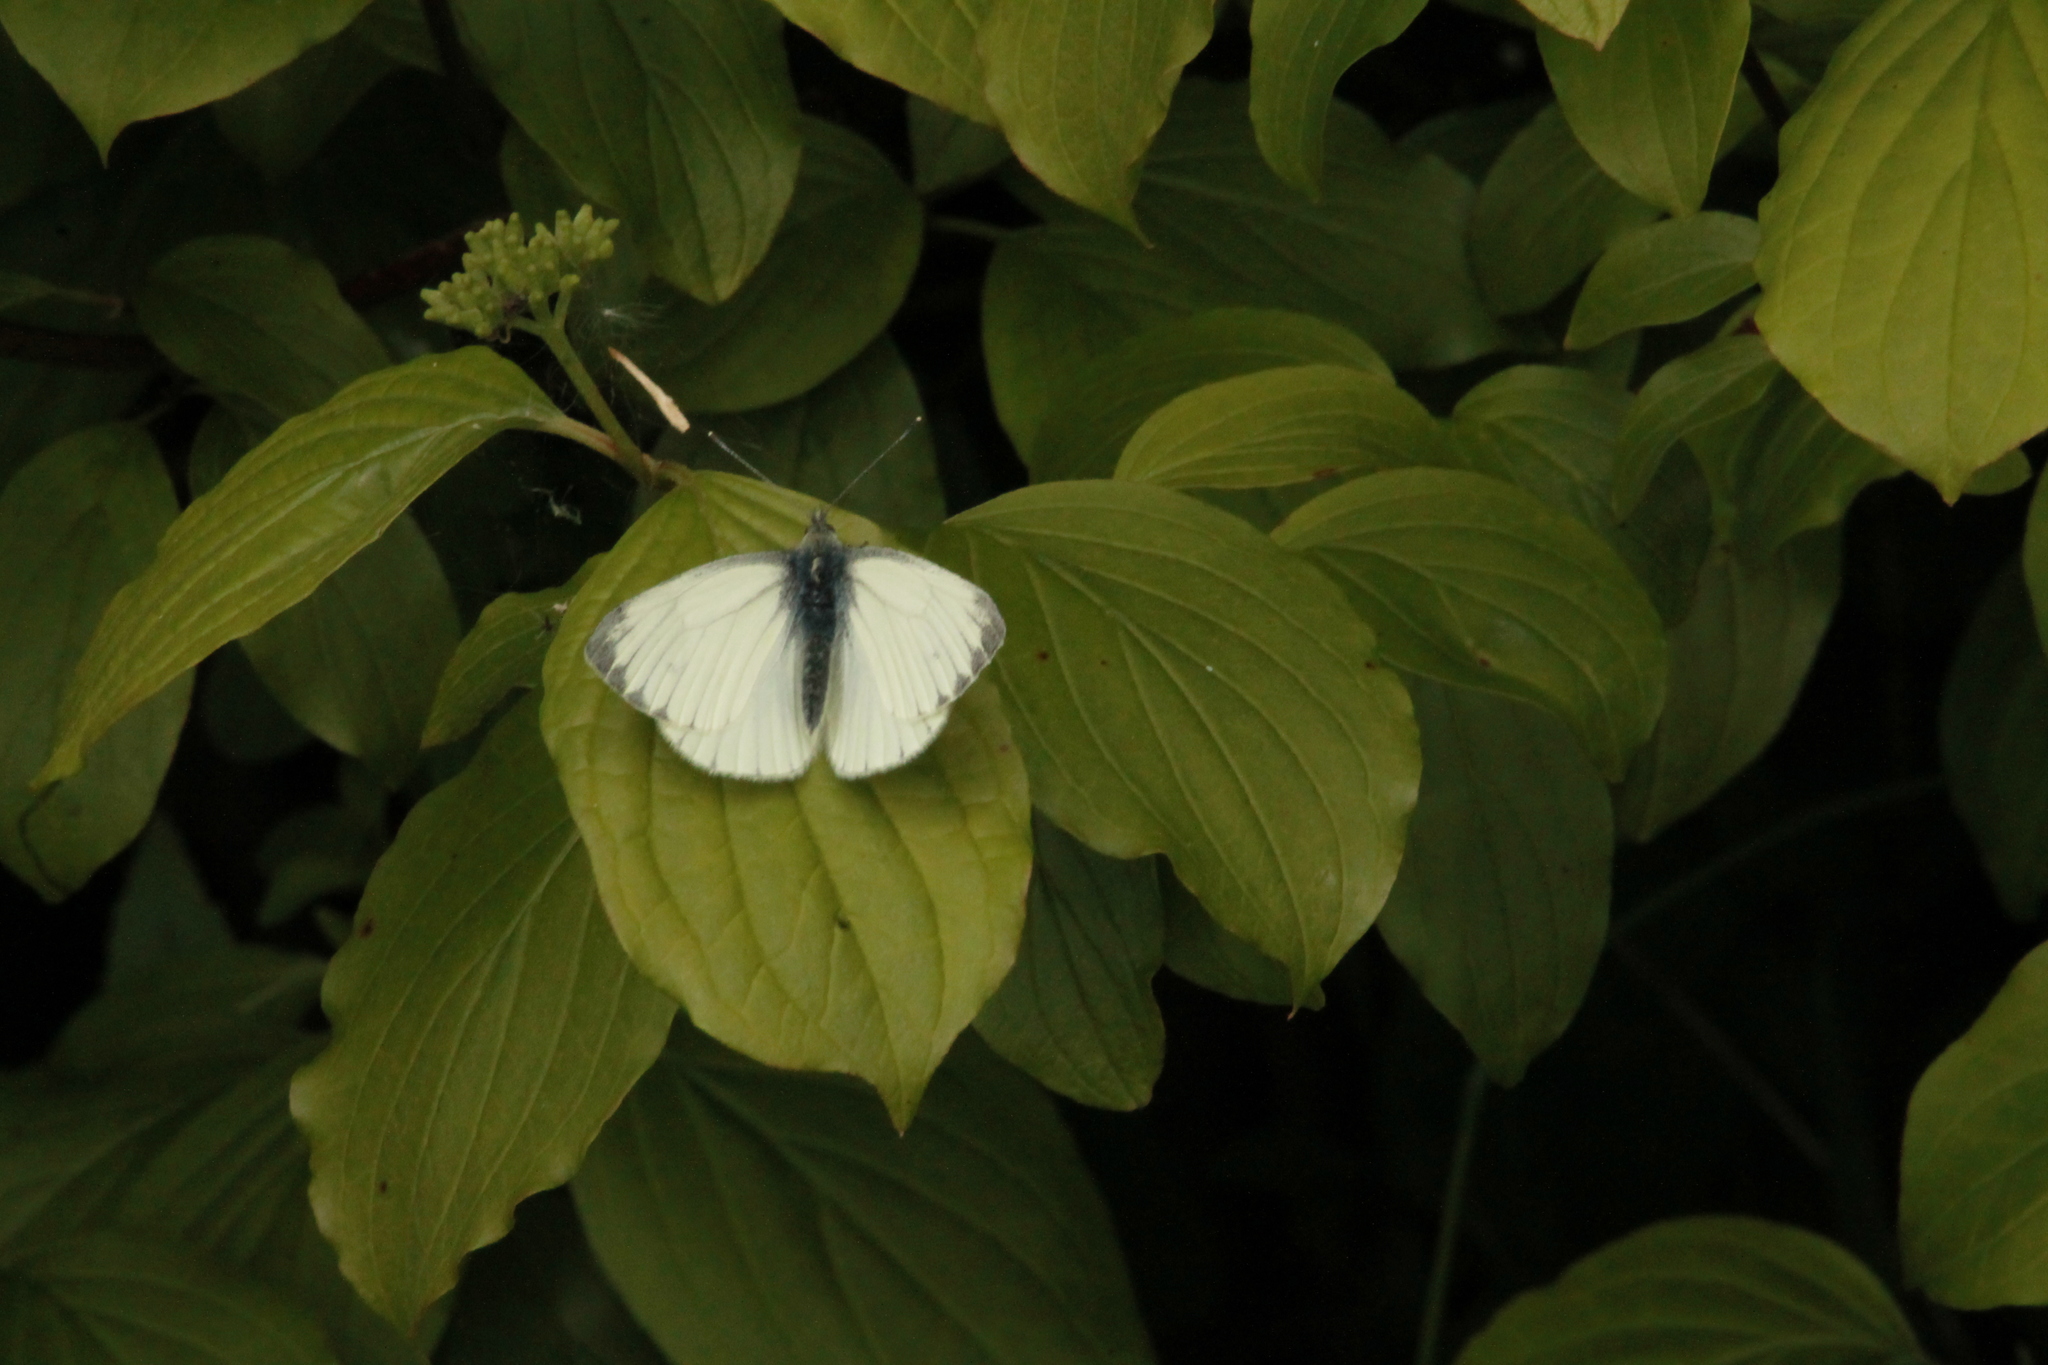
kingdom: Animalia
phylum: Arthropoda
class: Insecta
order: Lepidoptera
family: Pieridae
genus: Pieris
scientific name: Pieris napi
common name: Green-veined white
